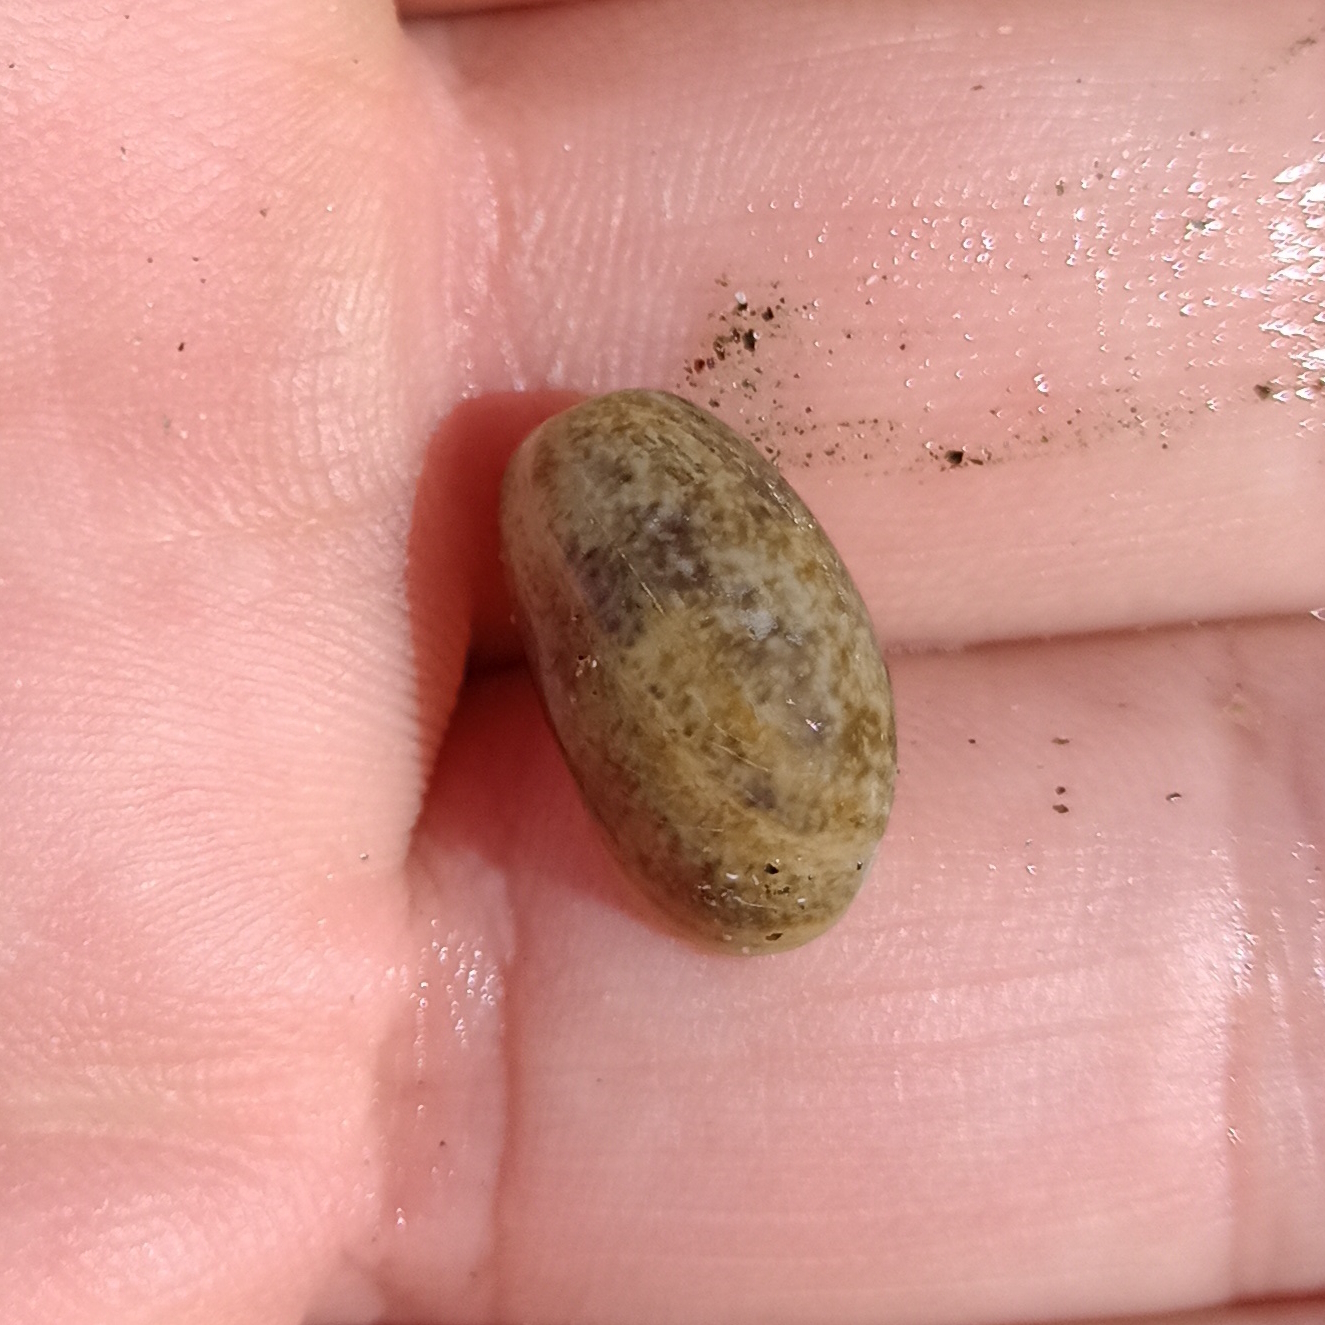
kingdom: Animalia
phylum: Mollusca
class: Gastropoda
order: Cephalaspidea
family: Bullidae
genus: Bulla
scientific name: Bulla occidentalis
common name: Common west-indian bubble
